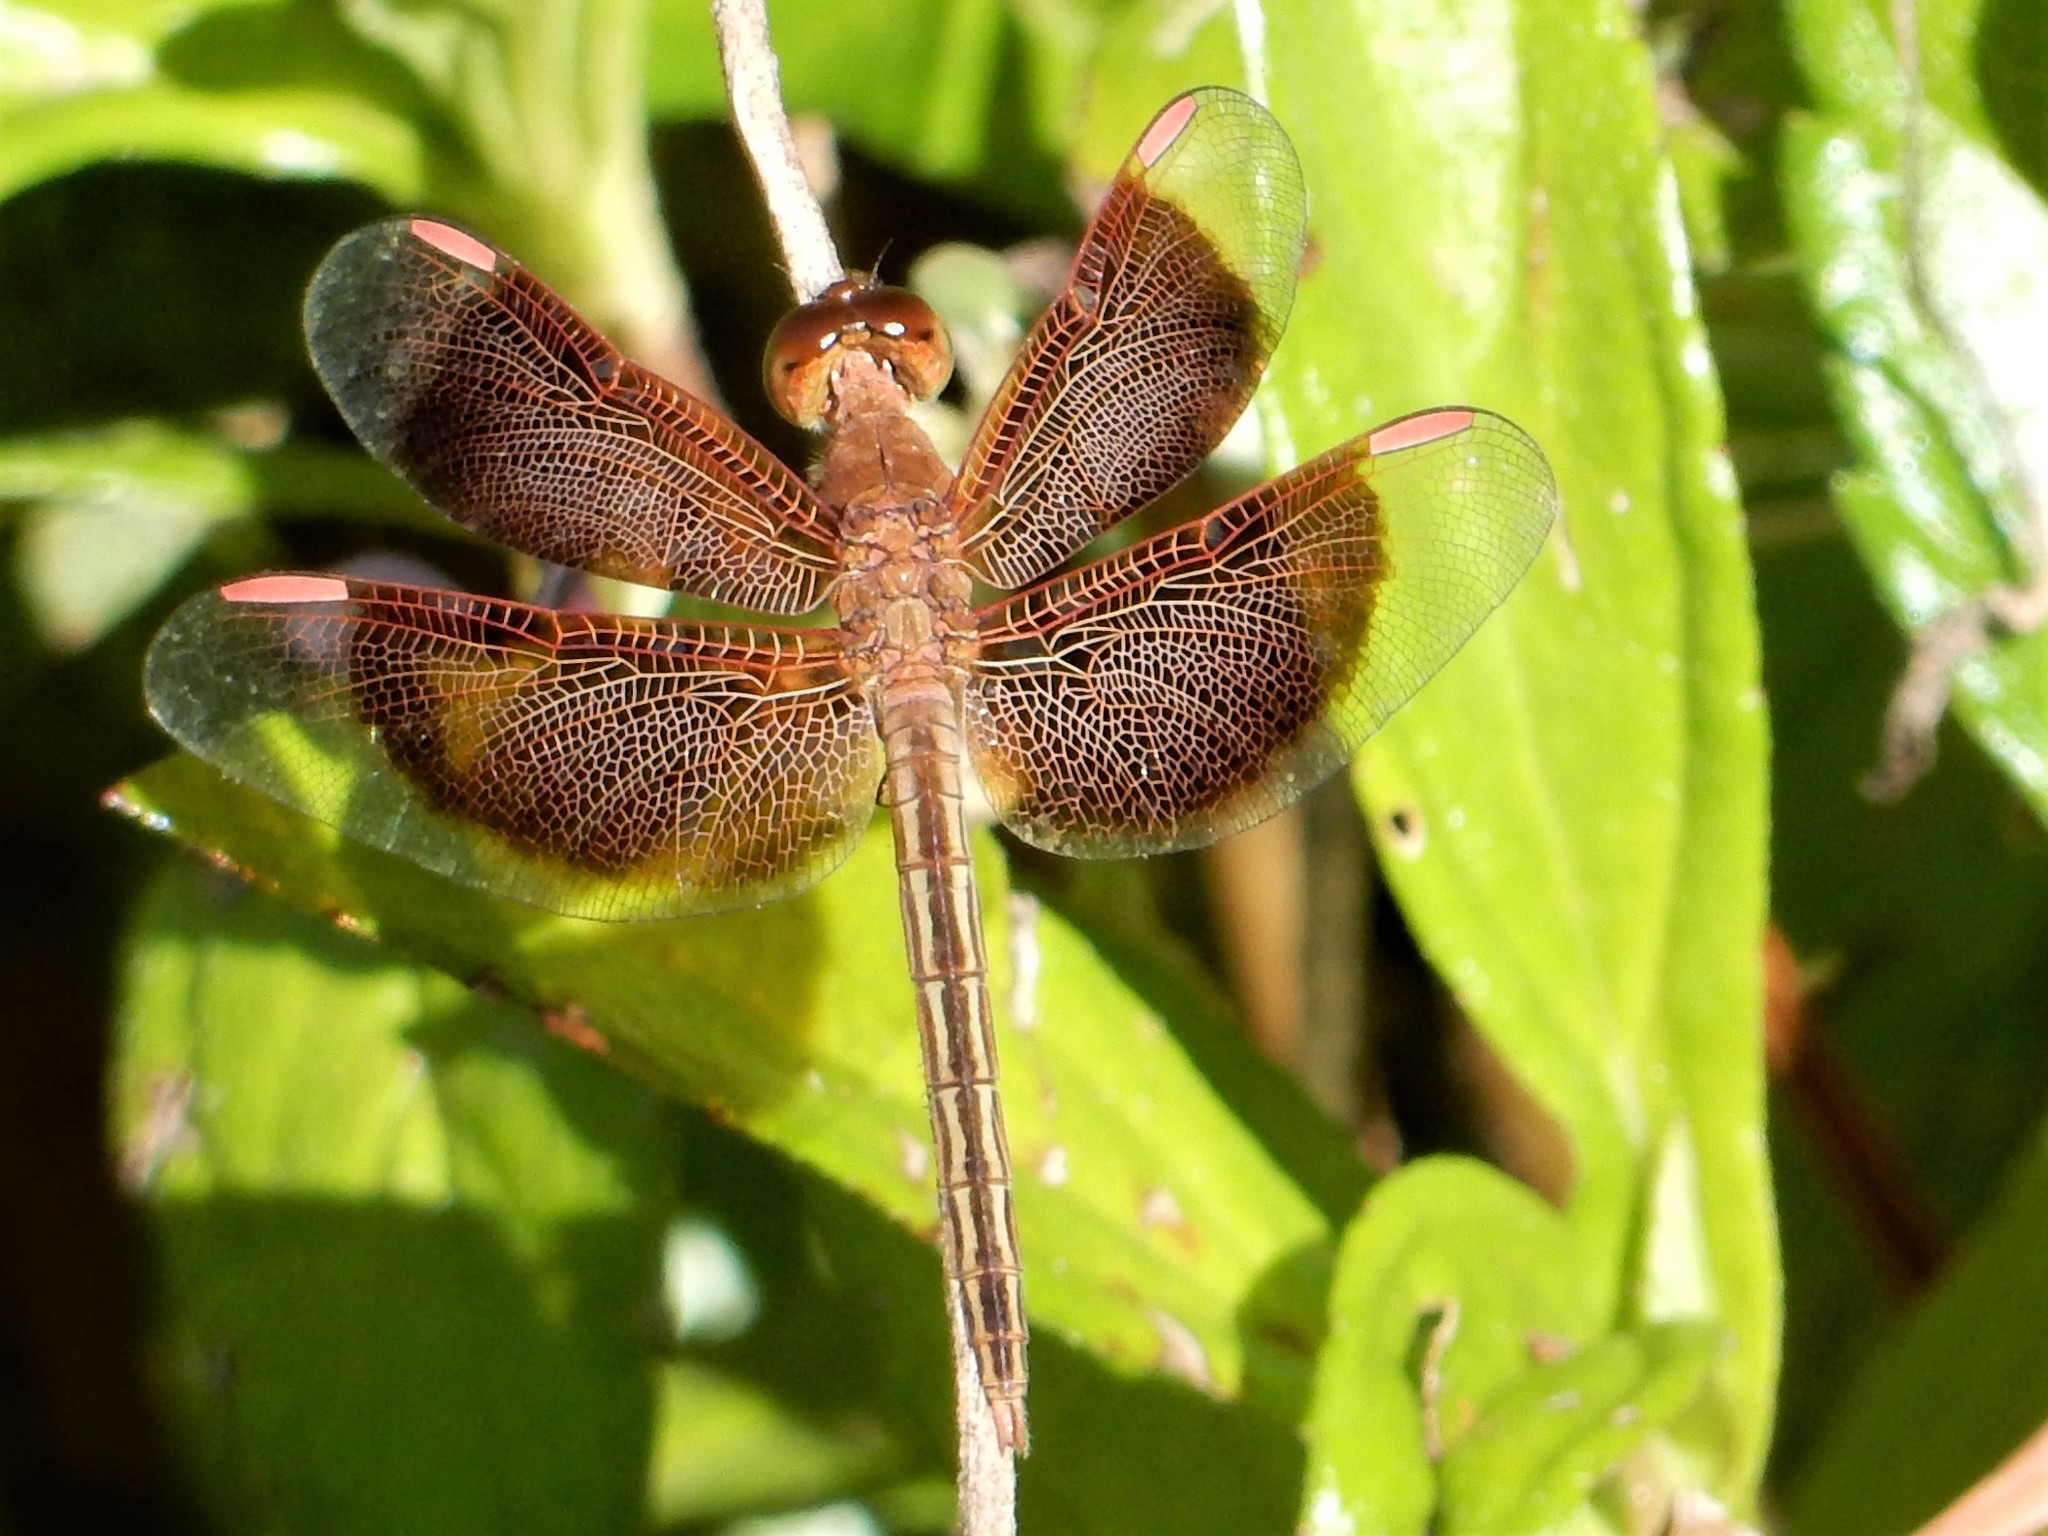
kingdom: Animalia
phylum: Arthropoda
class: Insecta
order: Odonata
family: Libellulidae
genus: Neurothemis
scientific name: Neurothemis stigmatizans
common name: Painted grasshawk
